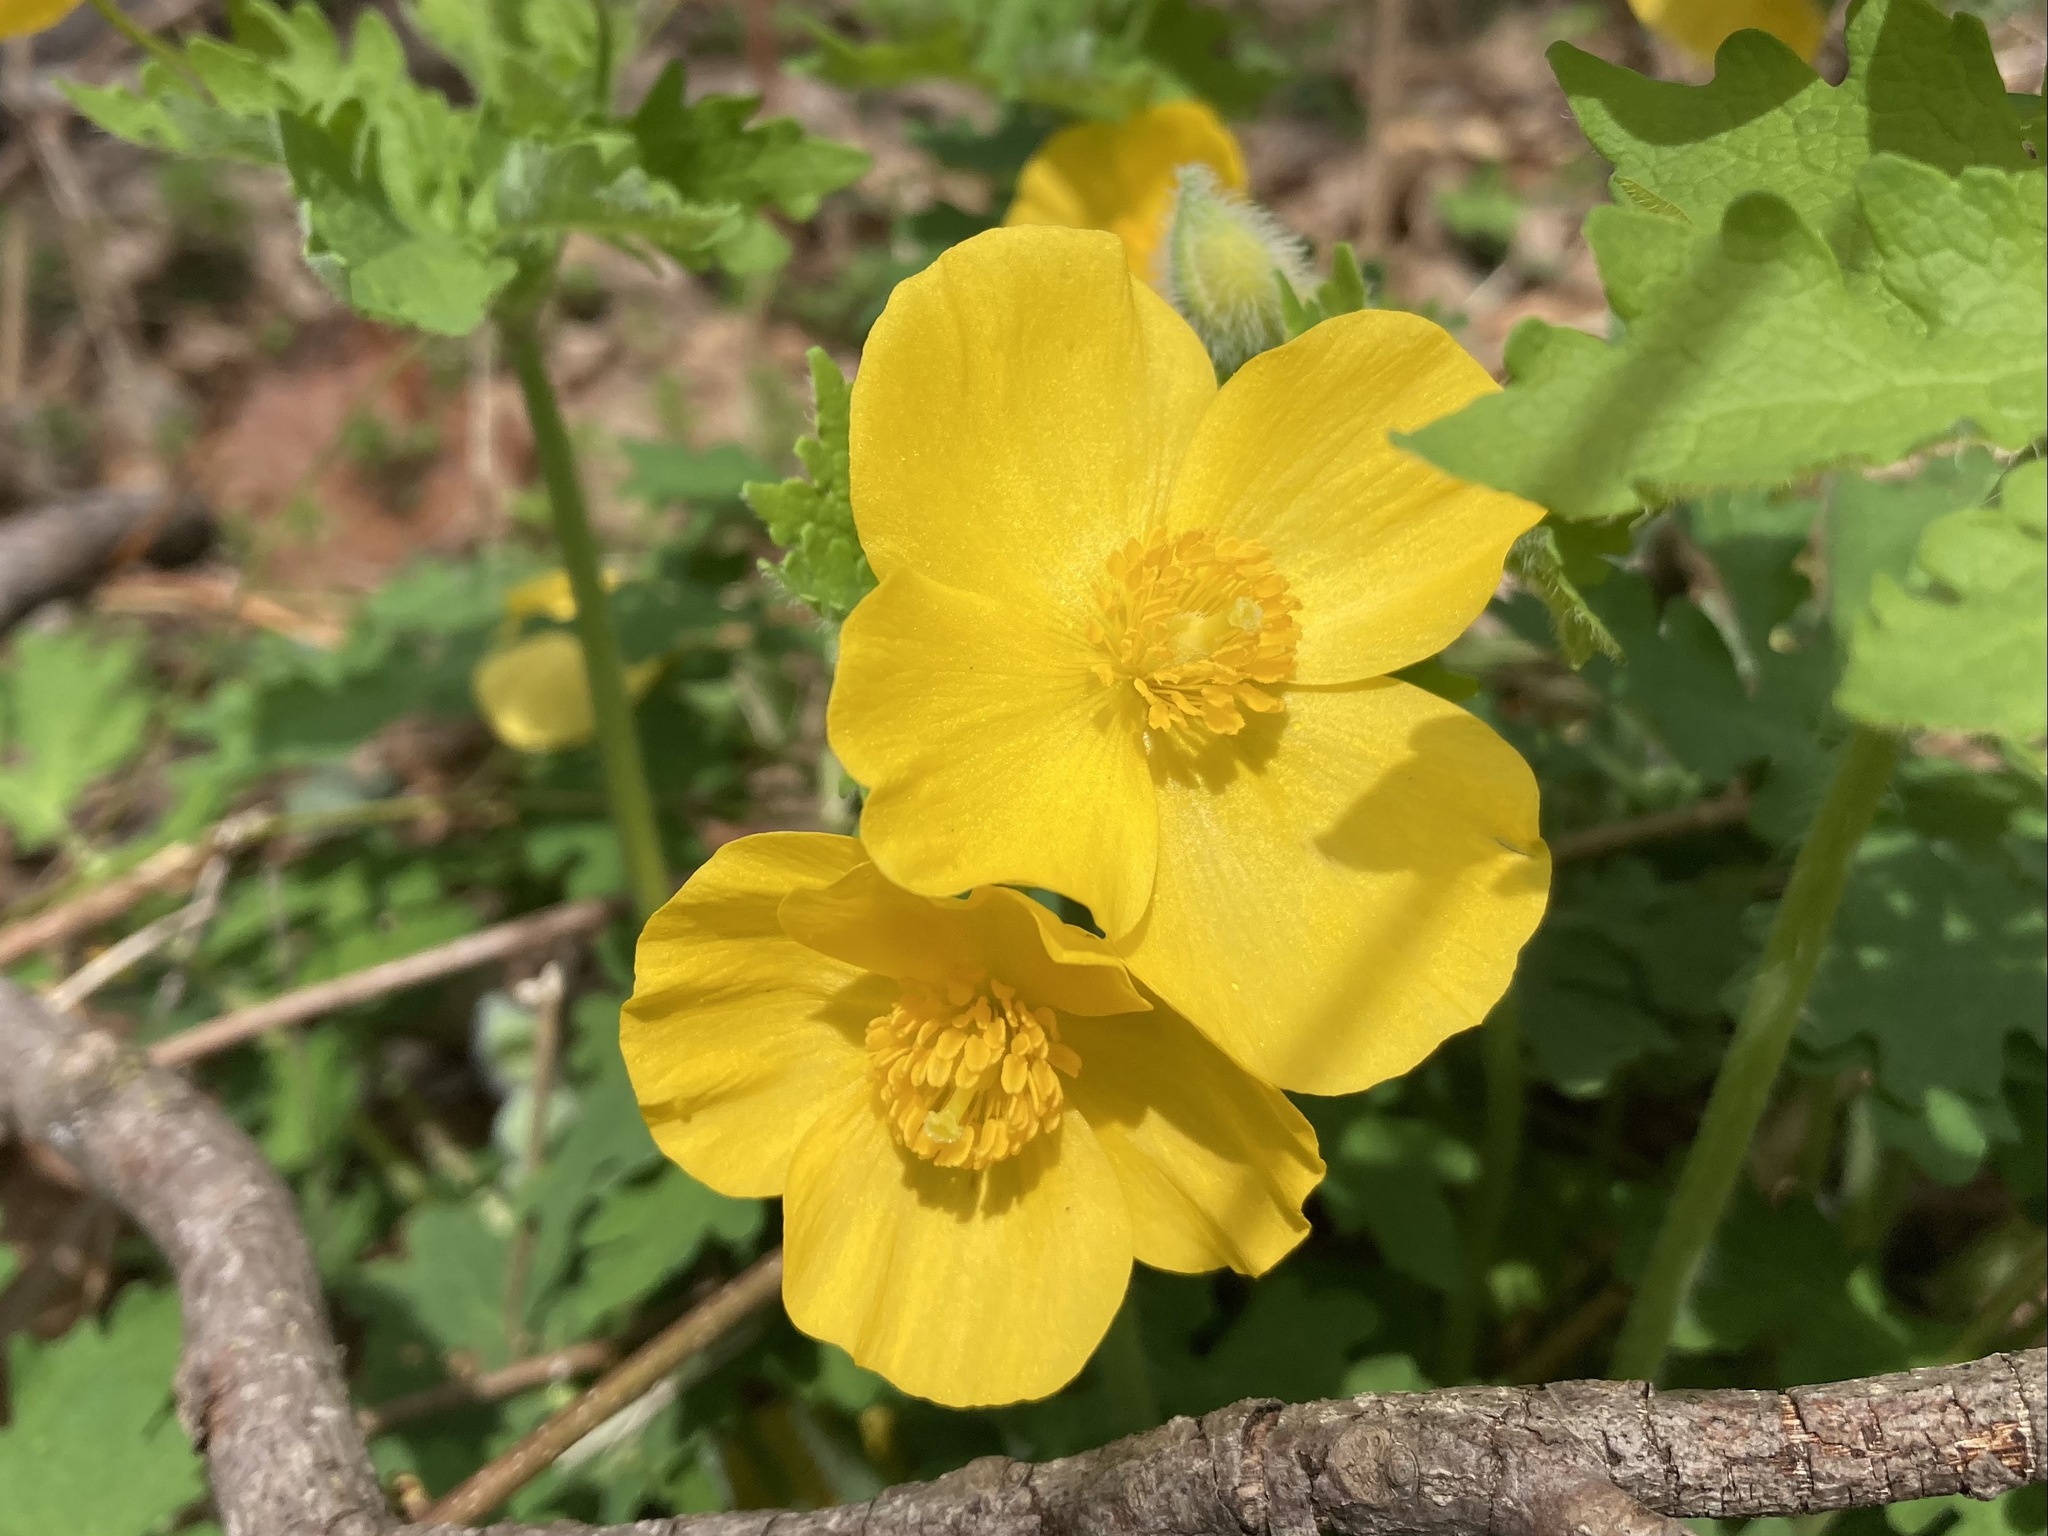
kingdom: Plantae
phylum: Tracheophyta
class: Magnoliopsida
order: Ranunculales
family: Papaveraceae
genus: Stylophorum
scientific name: Stylophorum diphyllum
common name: Celandine poppy
